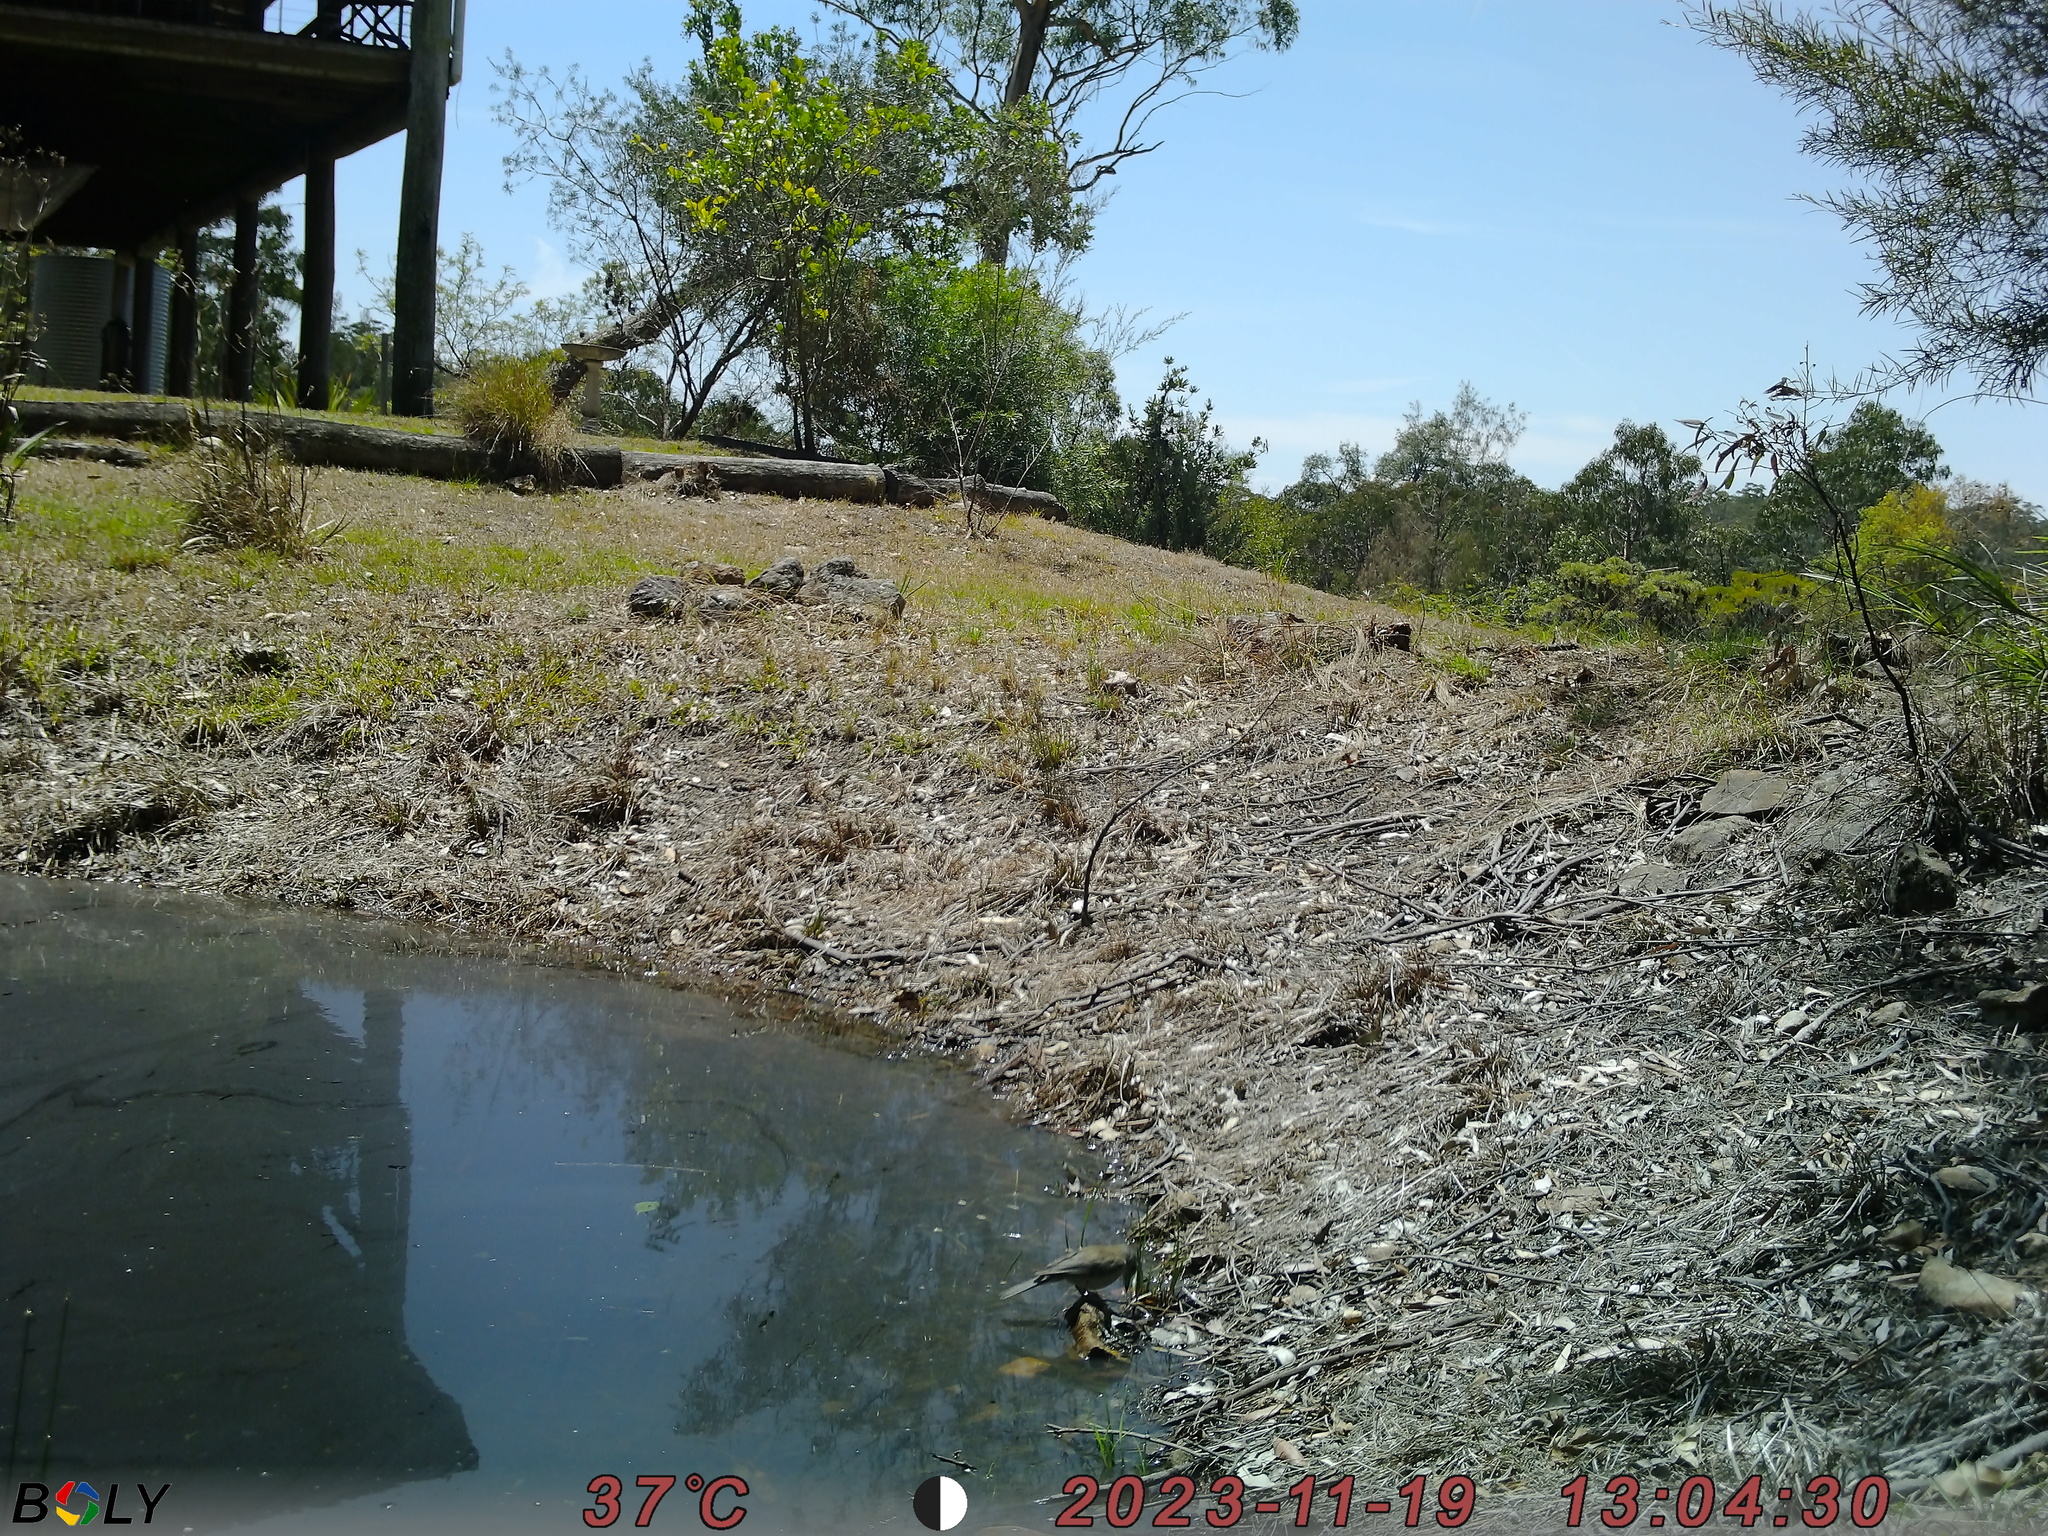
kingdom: Animalia
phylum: Chordata
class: Aves
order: Passeriformes
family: Pachycephalidae
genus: Colluricincla
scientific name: Colluricincla harmonica
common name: Grey shrikethrush
